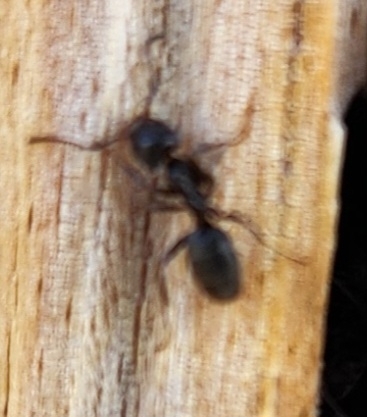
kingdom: Animalia
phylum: Arthropoda
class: Insecta
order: Hymenoptera
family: Formicidae
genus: Liometopum
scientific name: Liometopum luctuosum
